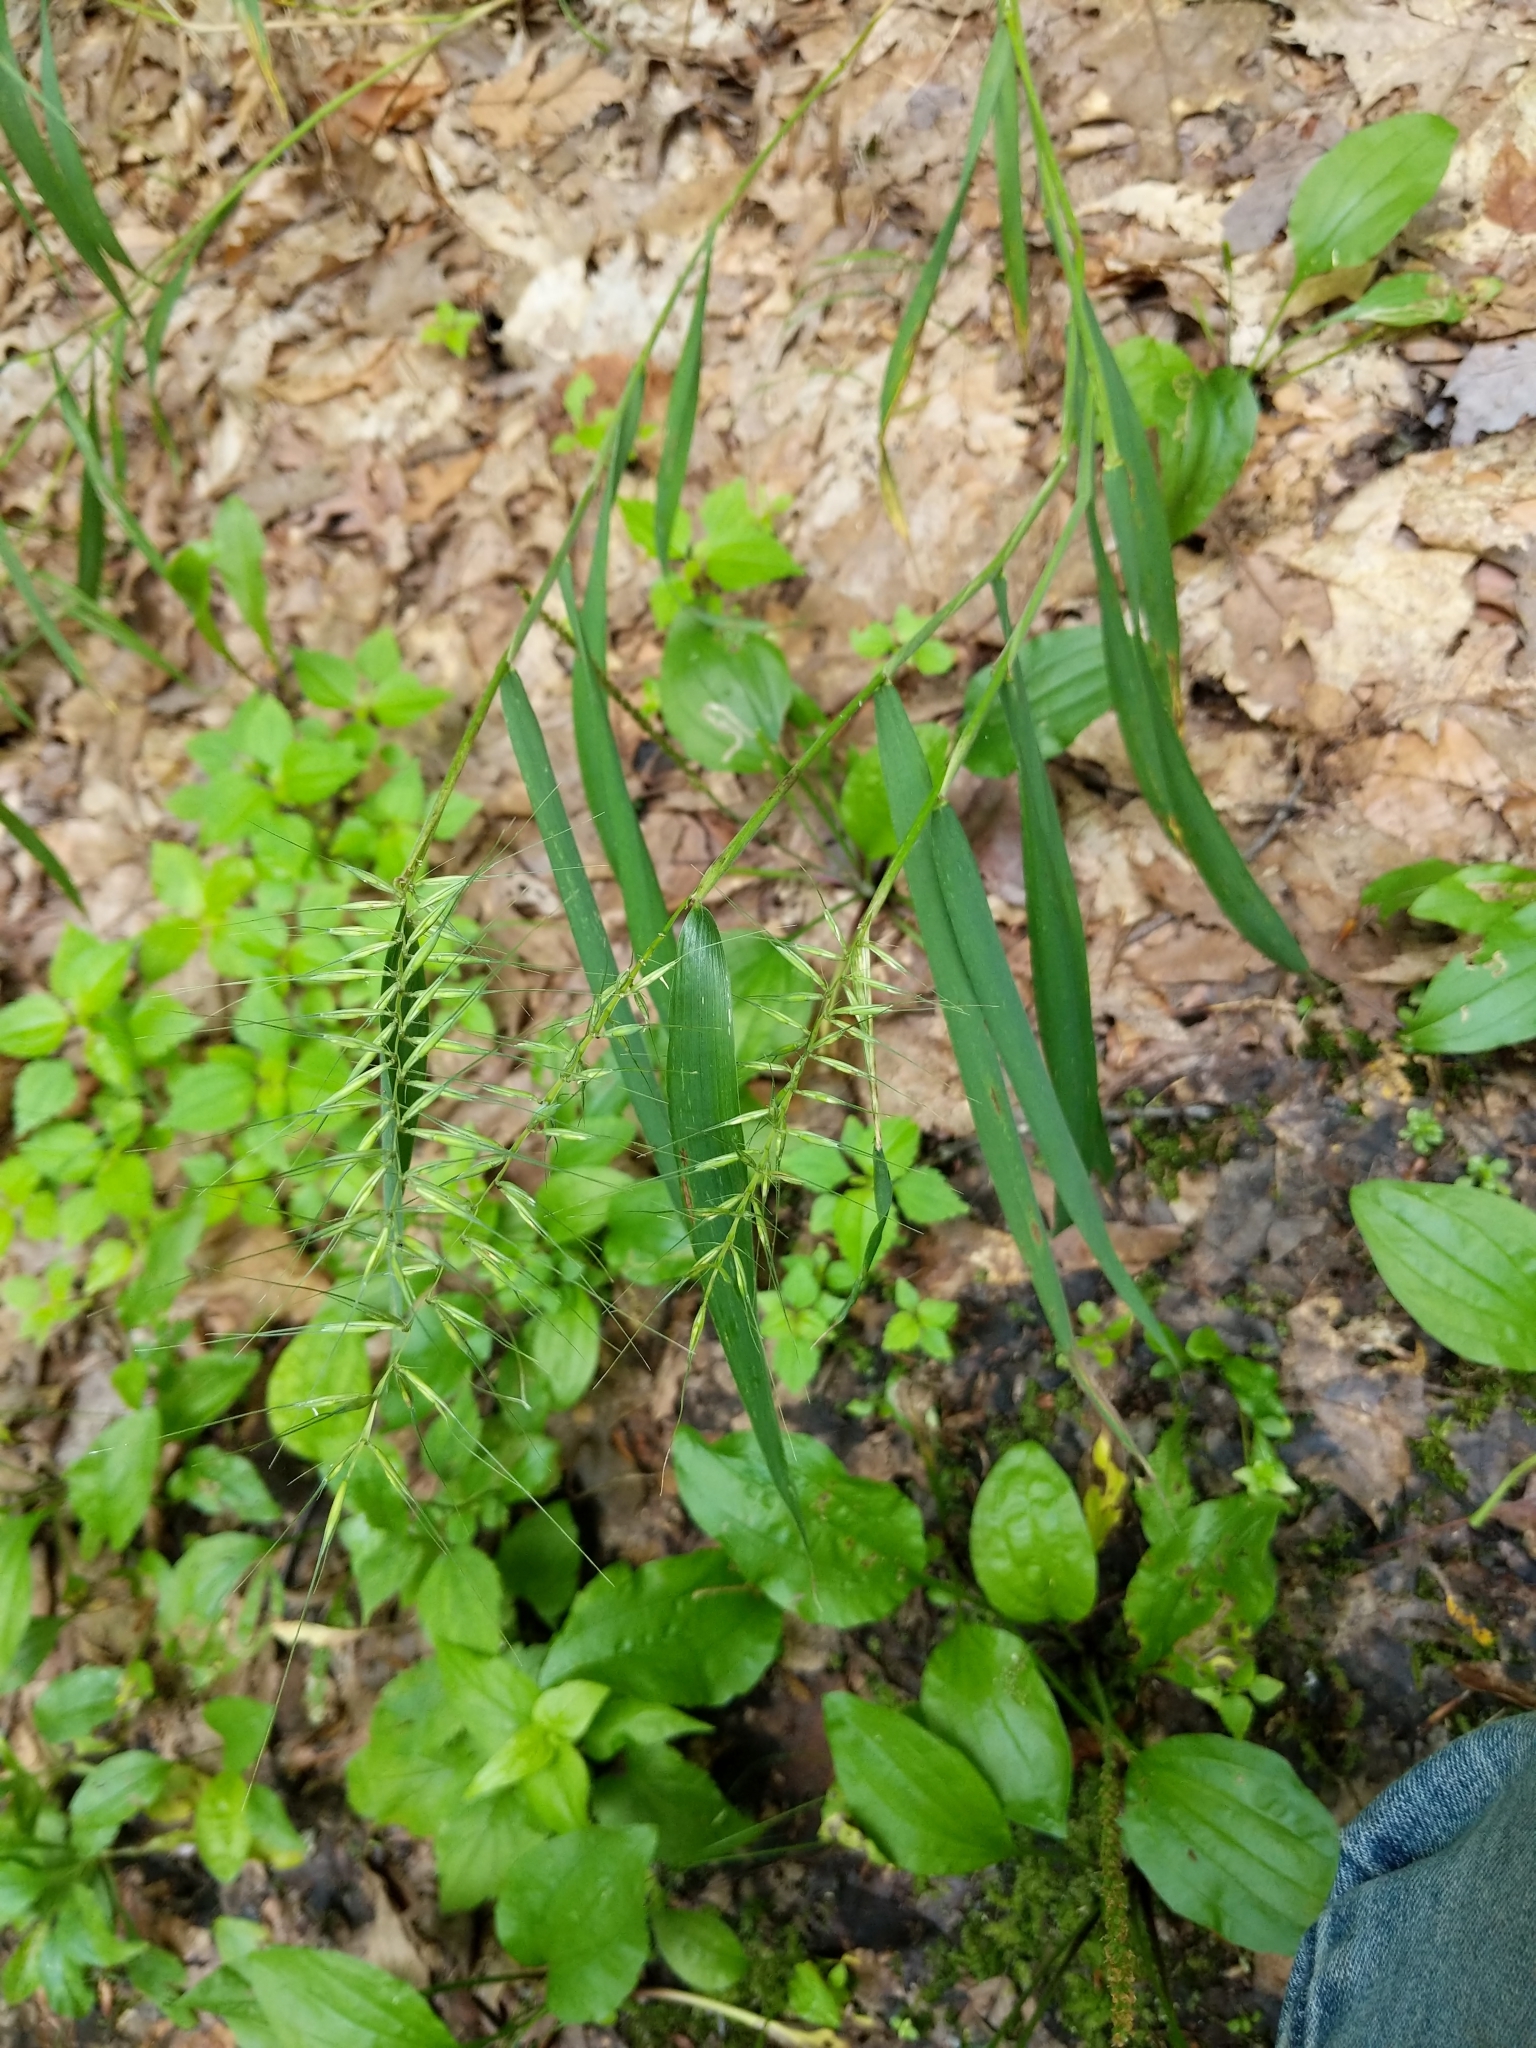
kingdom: Plantae
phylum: Tracheophyta
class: Liliopsida
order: Poales
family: Poaceae
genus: Elymus
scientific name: Elymus hystrix
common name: Bottlebrush grass
